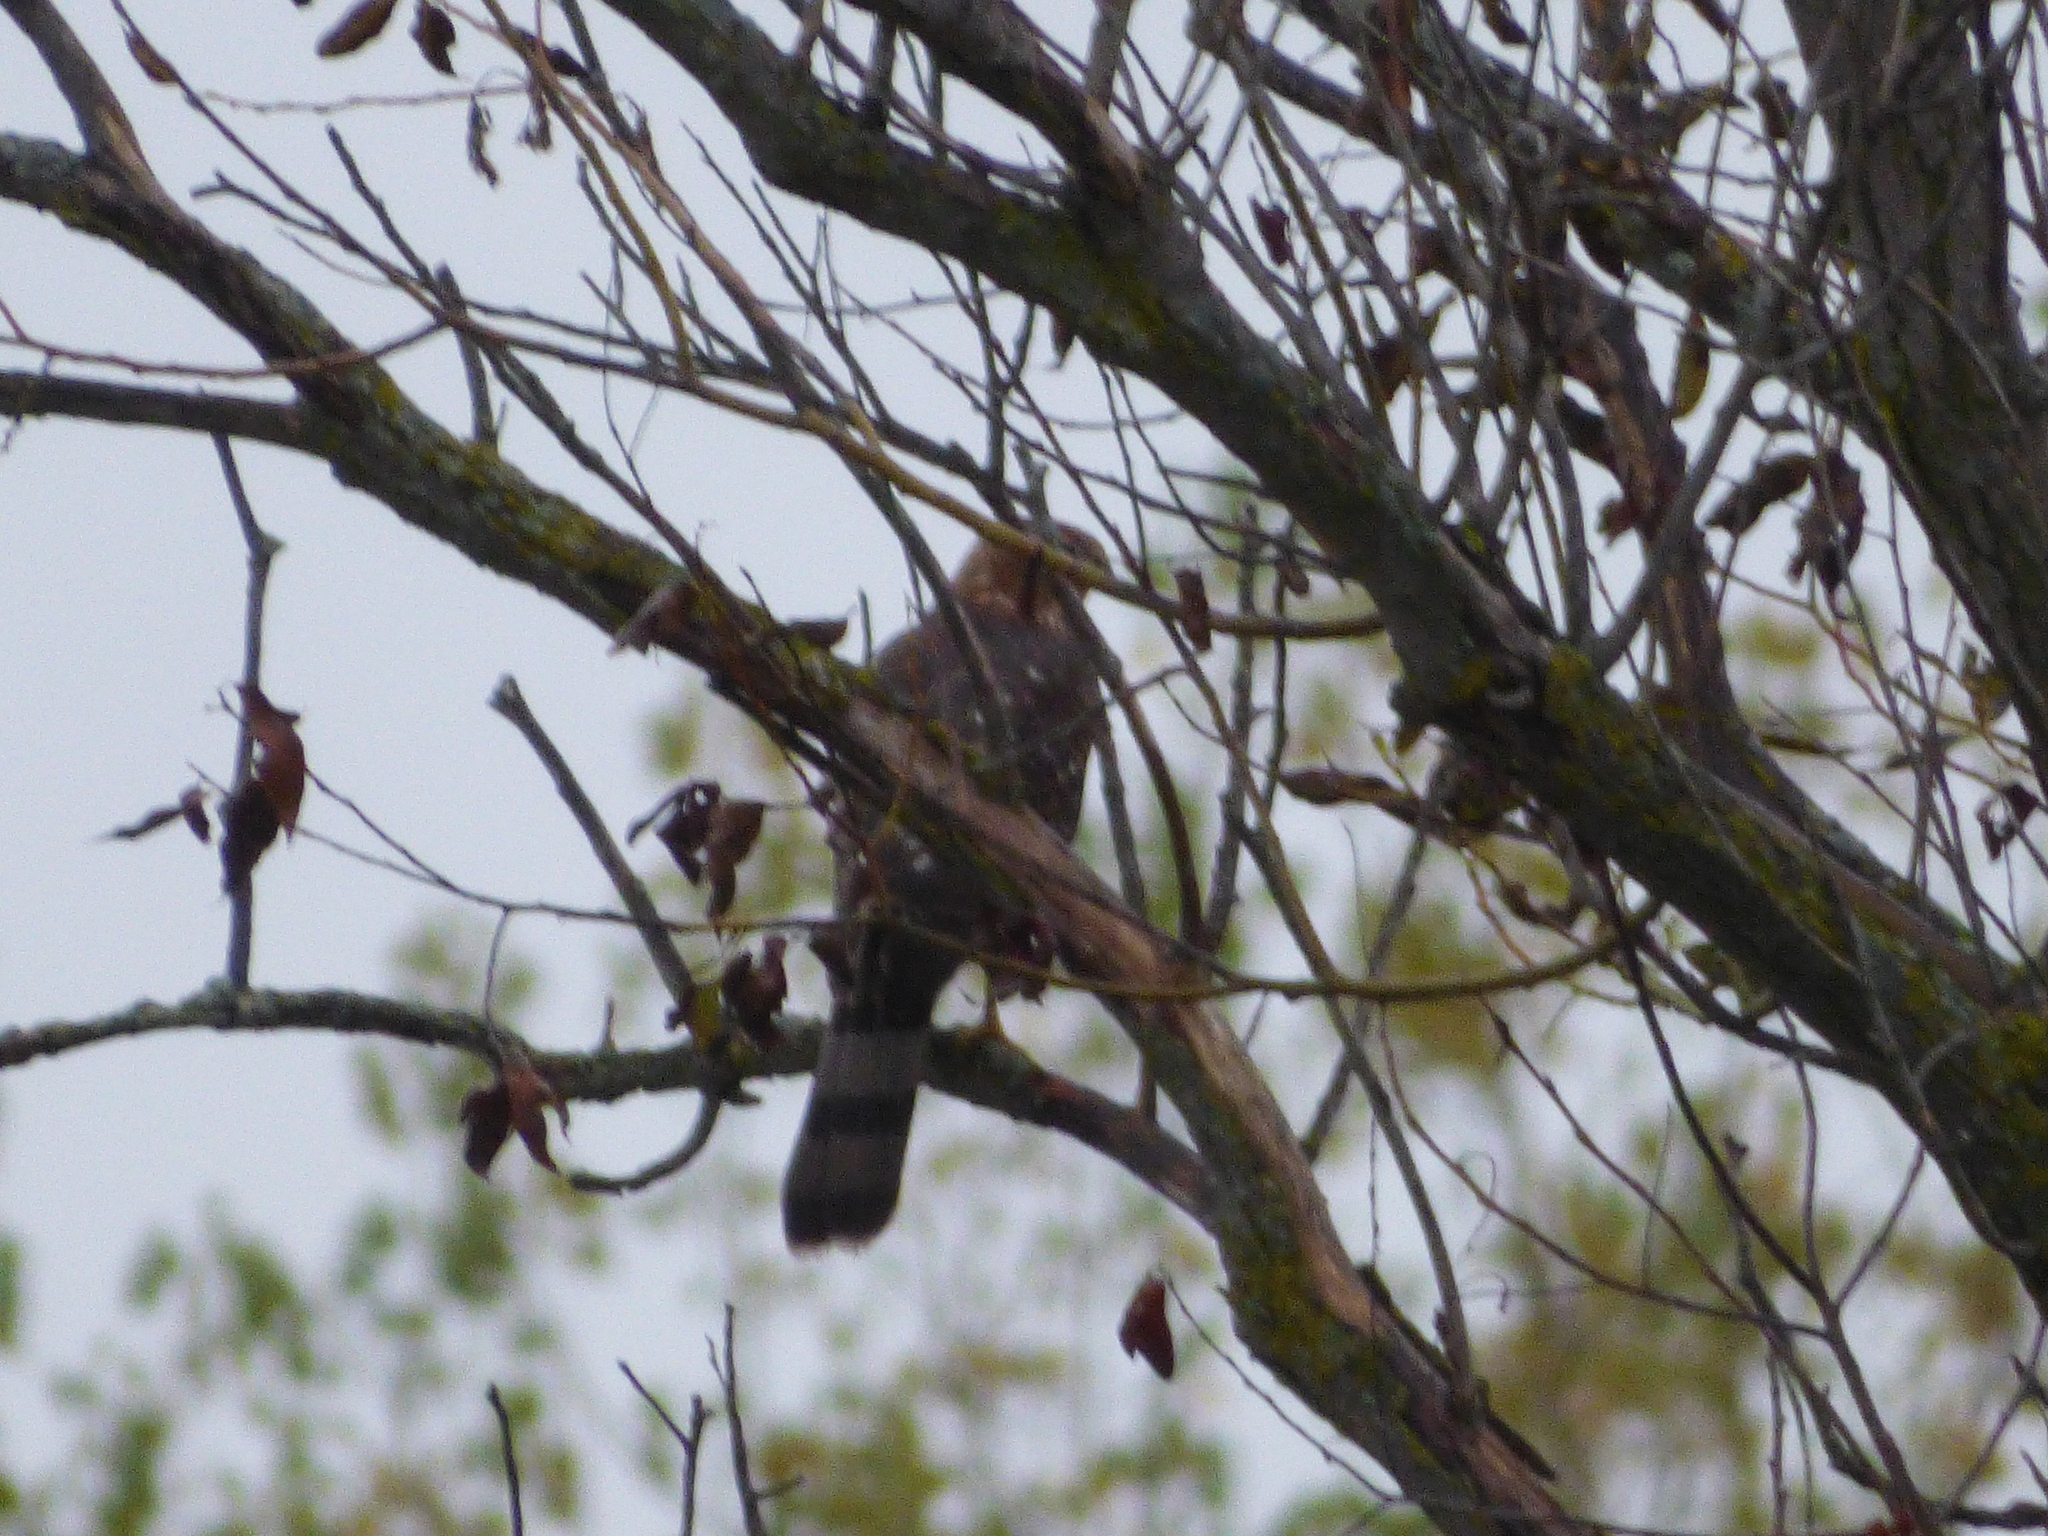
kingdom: Animalia
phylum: Chordata
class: Aves
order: Accipitriformes
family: Accipitridae
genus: Accipiter
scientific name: Accipiter cooperii
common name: Cooper's hawk
